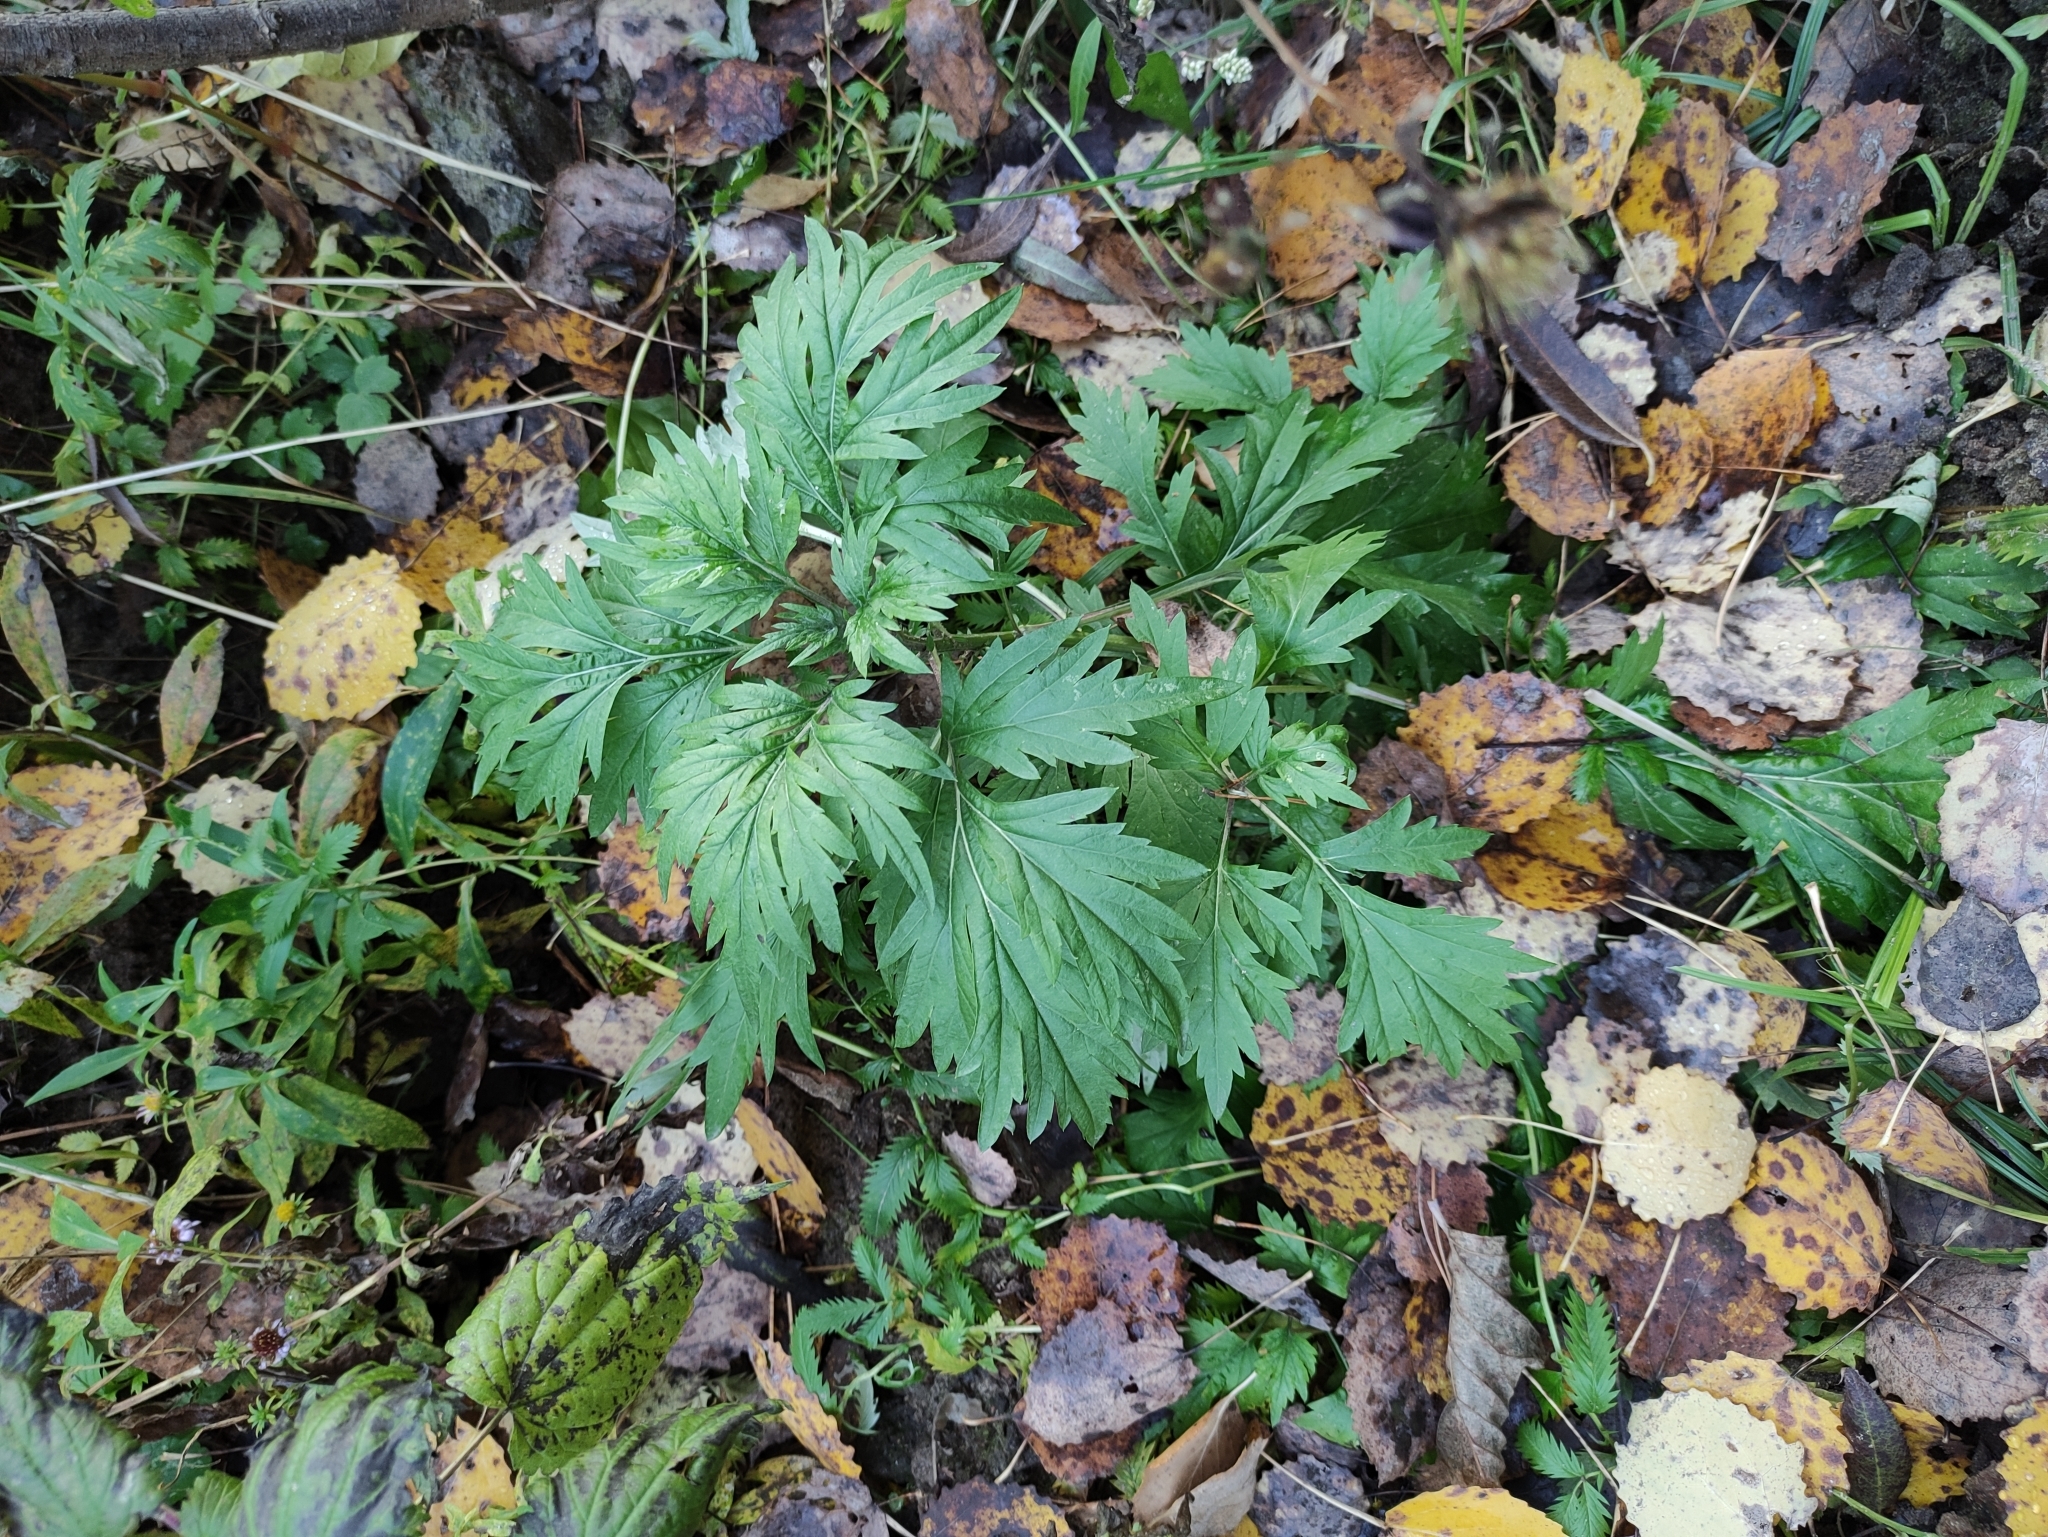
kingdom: Plantae
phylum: Tracheophyta
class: Magnoliopsida
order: Asterales
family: Asteraceae
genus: Artemisia
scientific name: Artemisia vulgaris
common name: Mugwort
